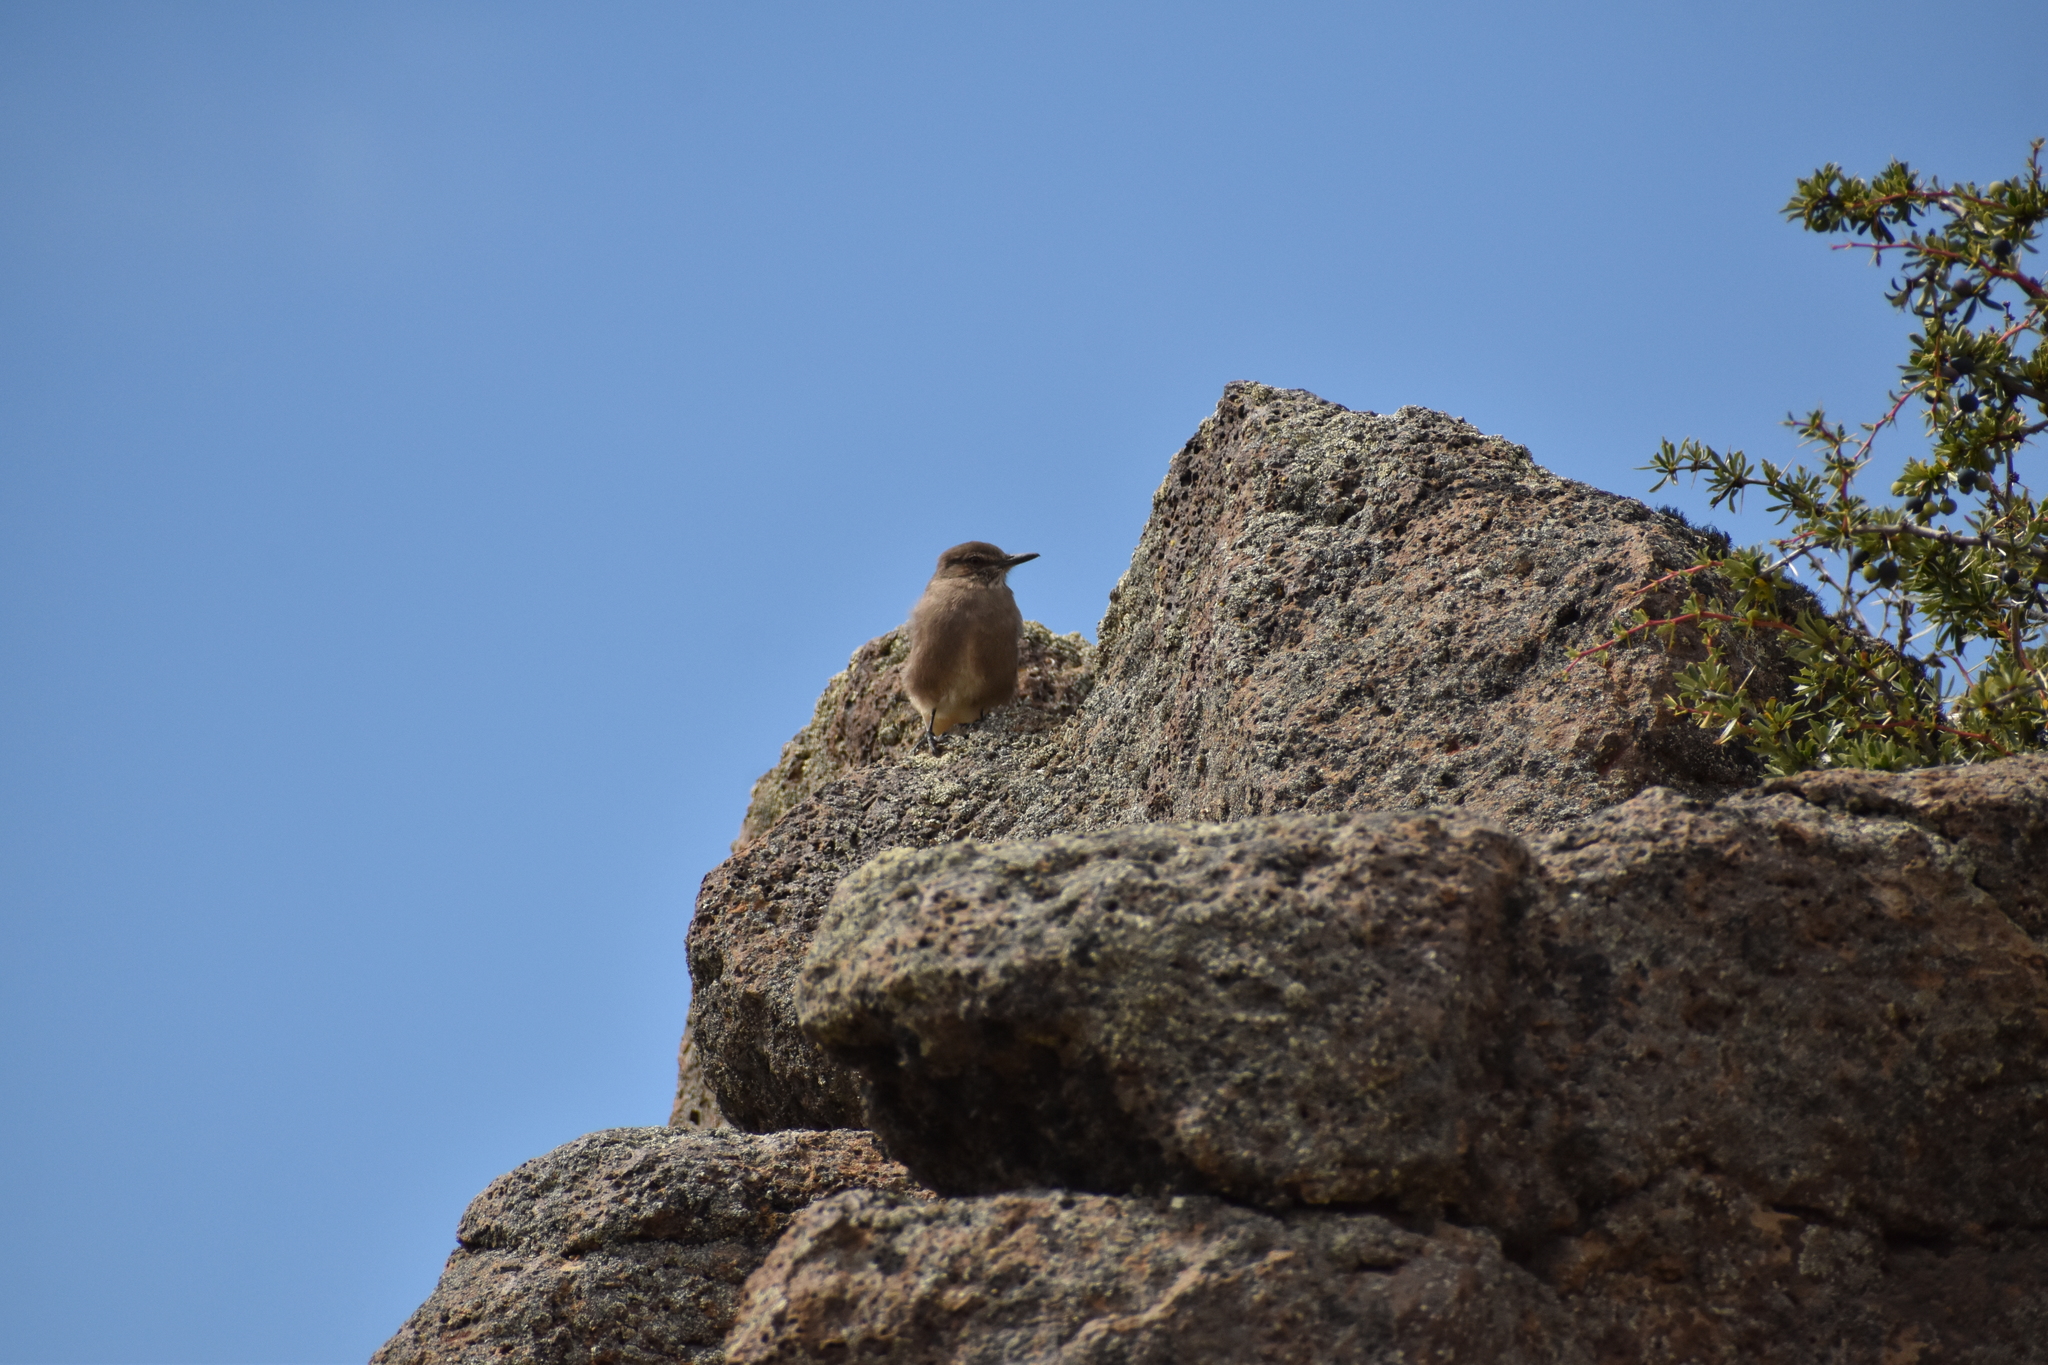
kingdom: Animalia
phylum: Chordata
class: Aves
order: Passeriformes
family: Tyrannidae
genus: Agriornis
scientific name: Agriornis montanus
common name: Black-billed shrike-tyrant
